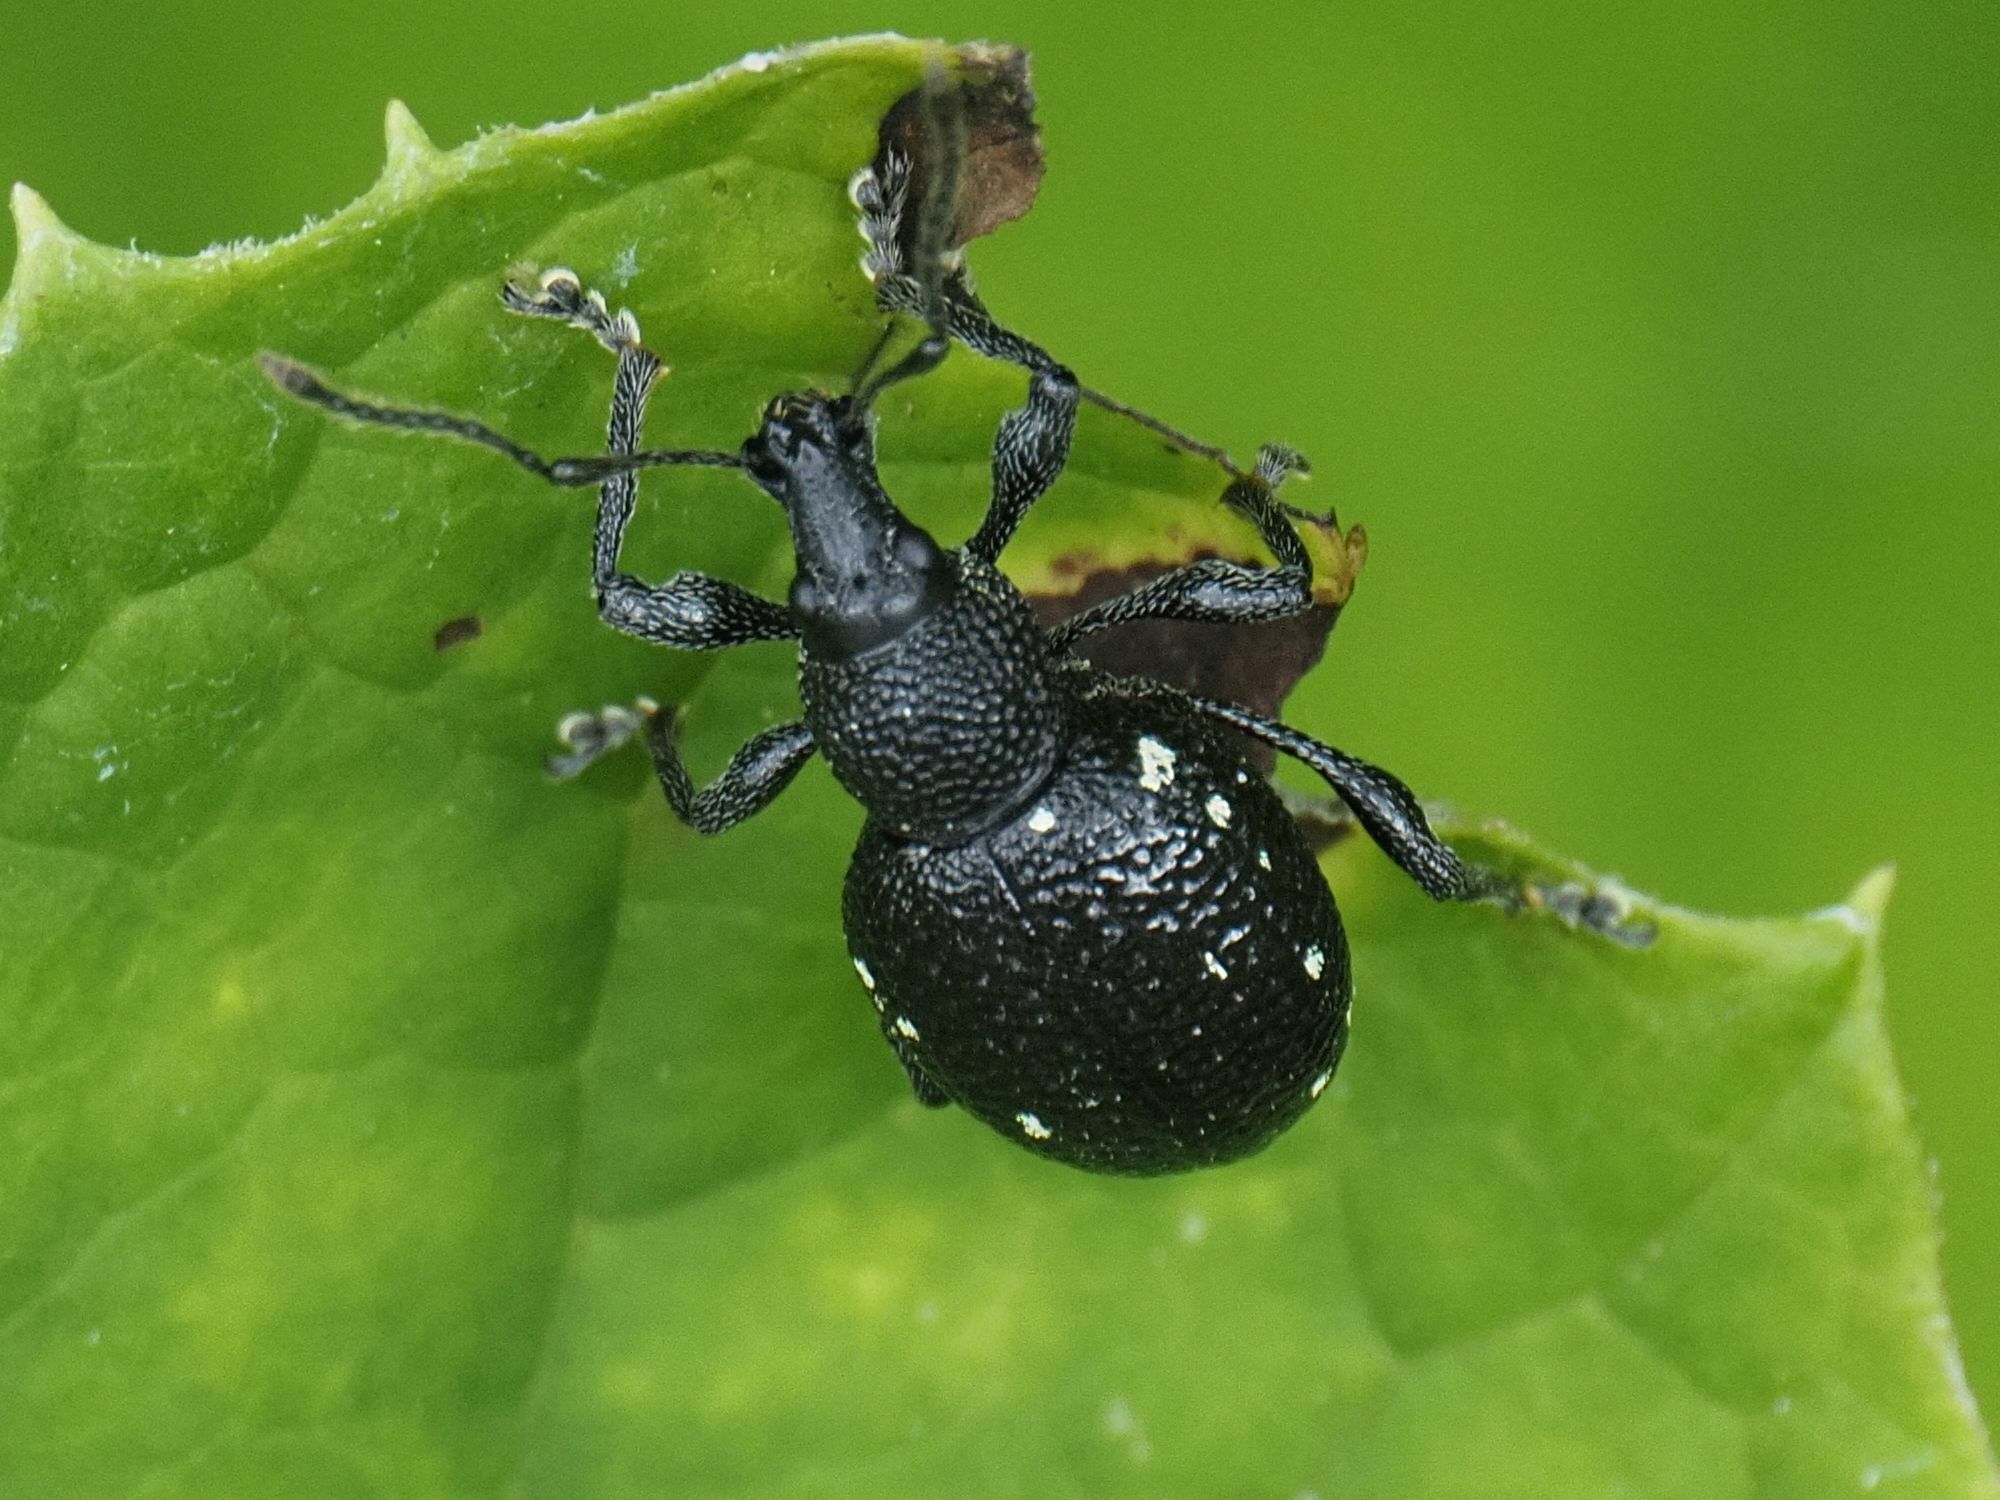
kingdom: Animalia
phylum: Arthropoda
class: Insecta
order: Coleoptera
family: Curculionidae
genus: Otiorhynchus
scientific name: Otiorhynchus gemmatus
